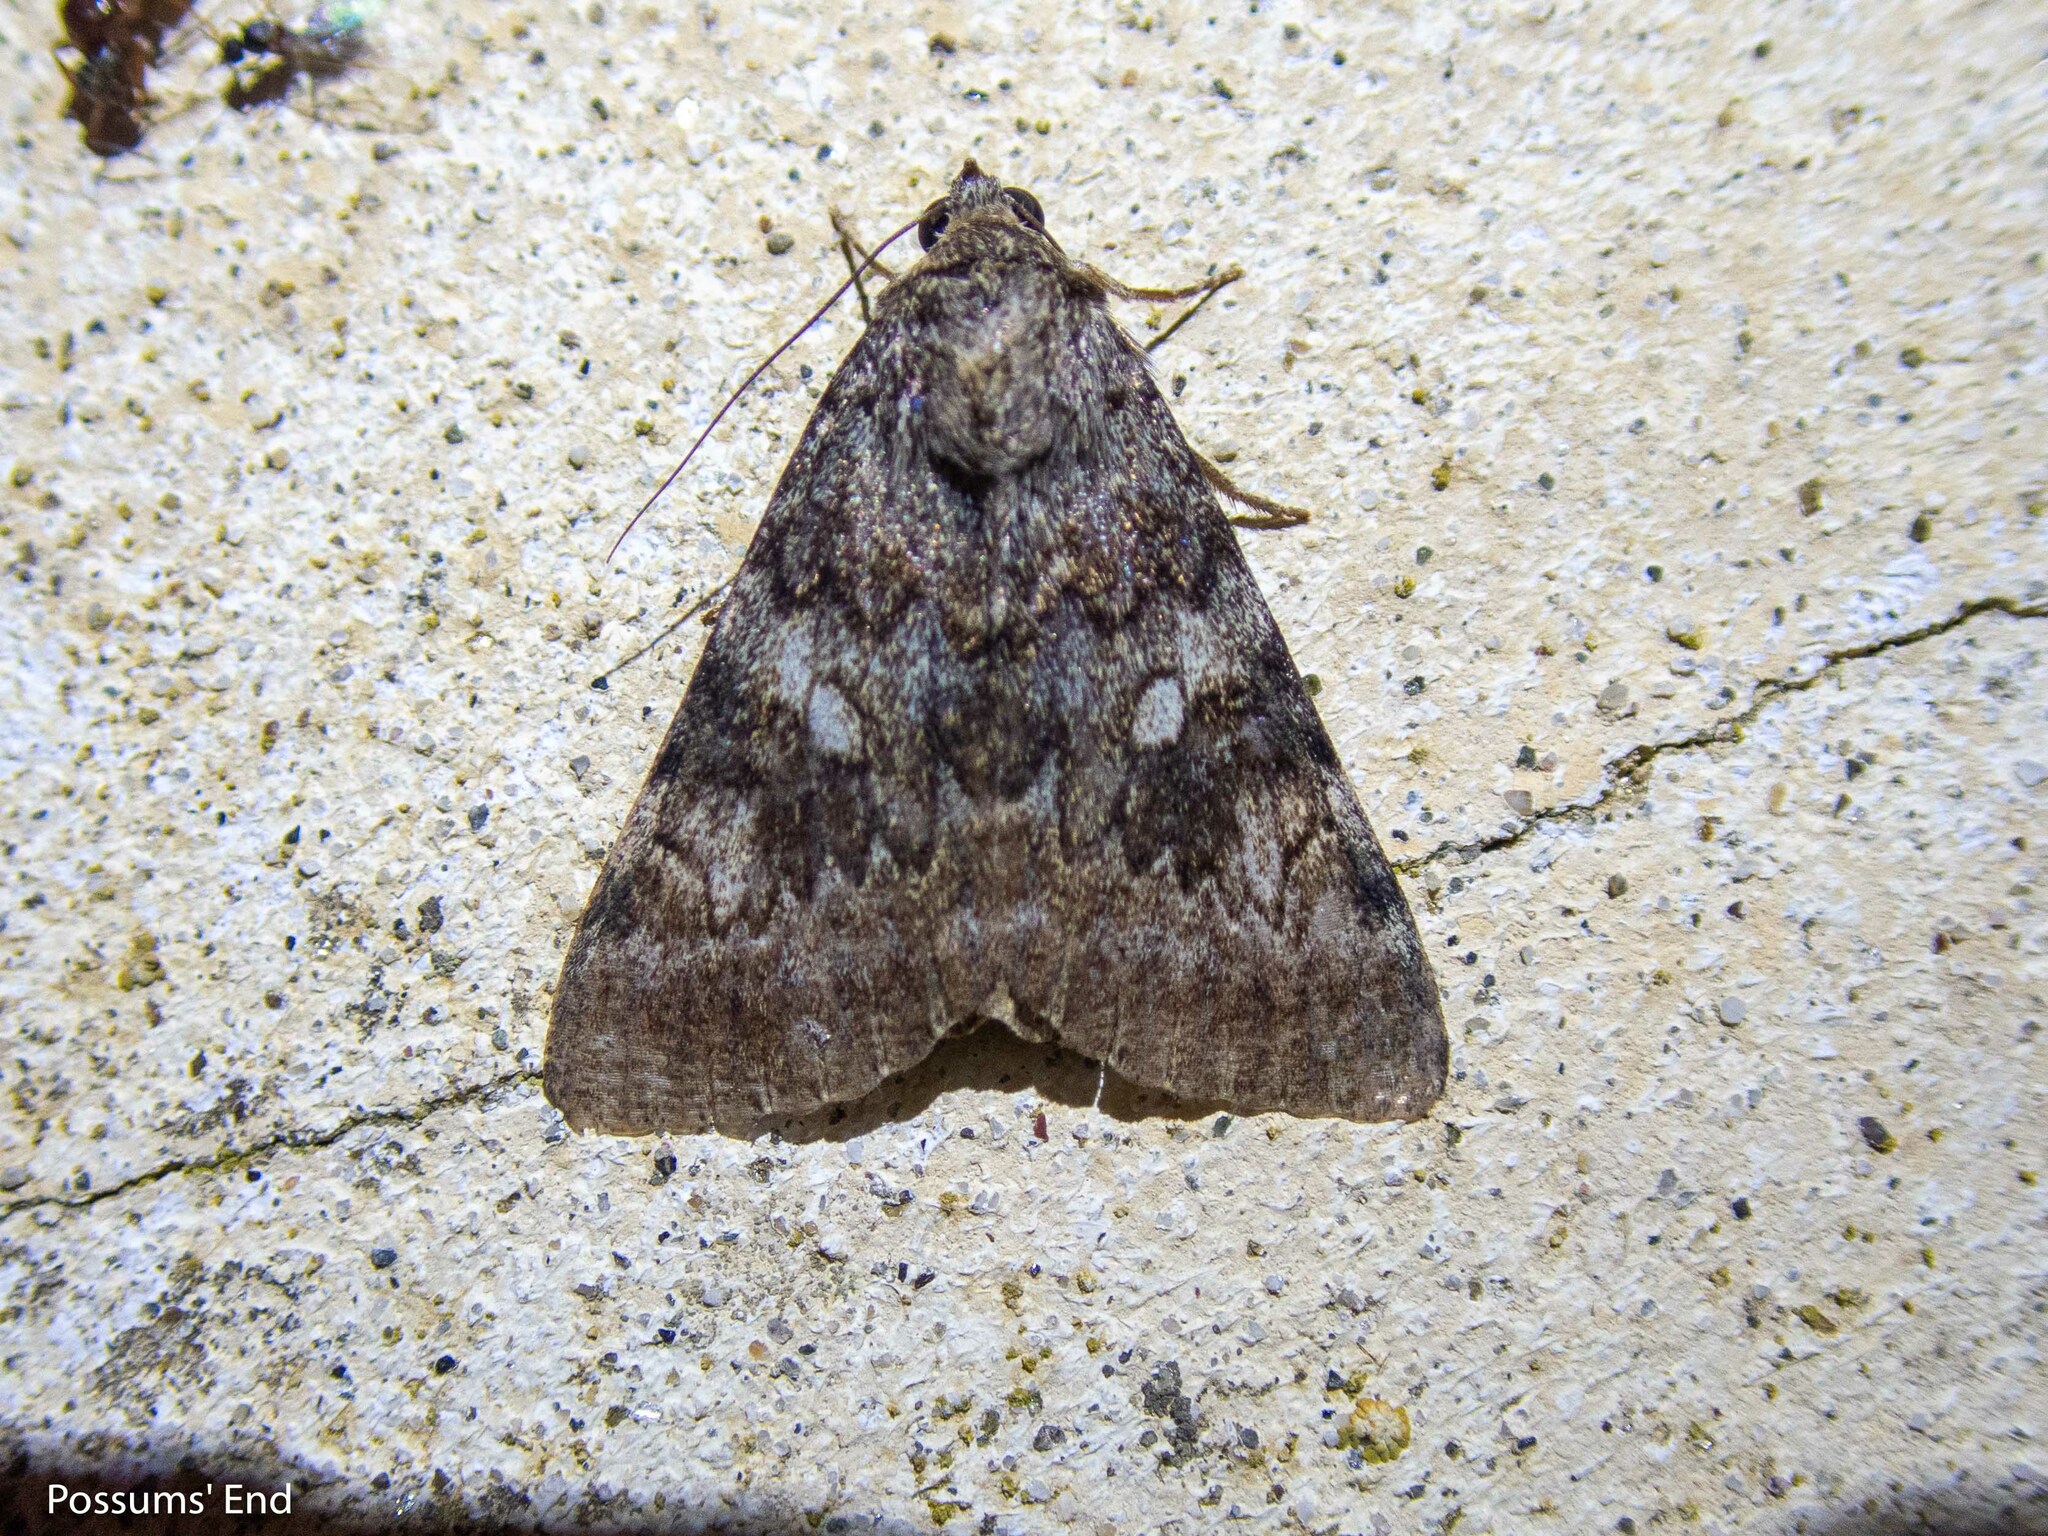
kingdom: Animalia
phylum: Arthropoda
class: Insecta
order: Lepidoptera
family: Erebidae
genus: Catocala
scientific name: Catocala nymphaea
